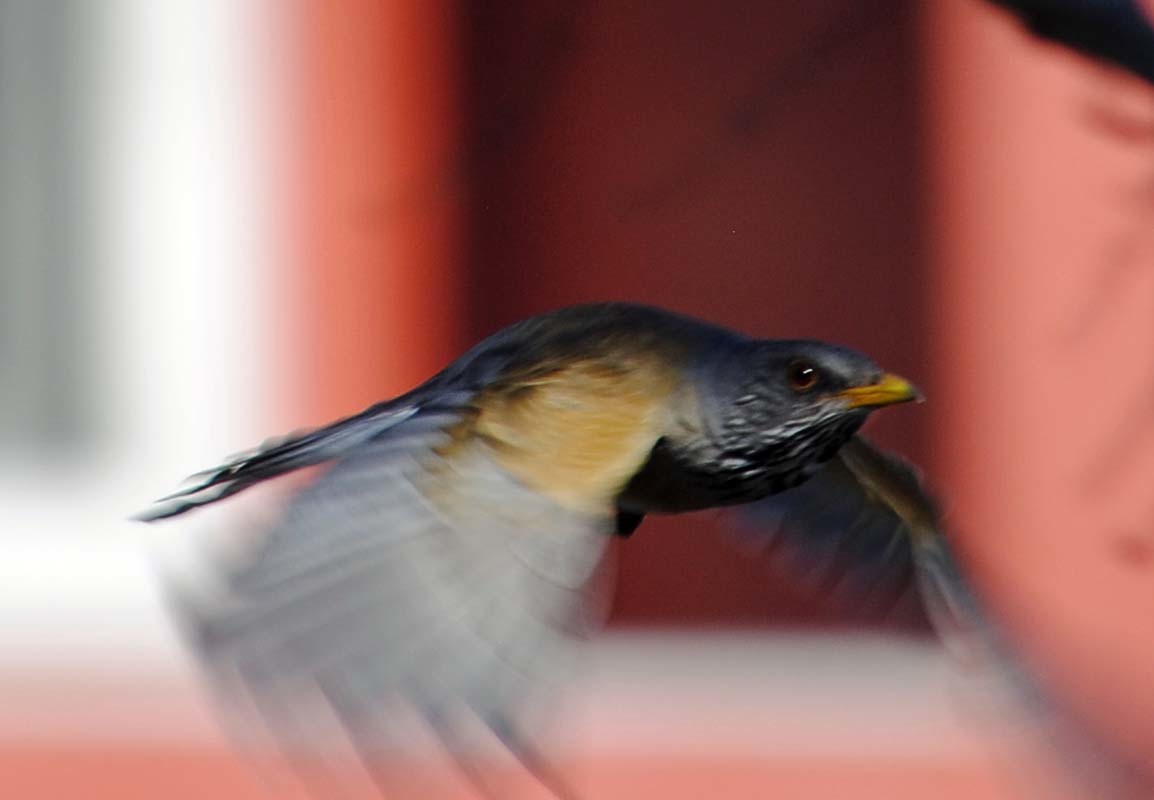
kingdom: Animalia
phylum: Chordata
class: Aves
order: Passeriformes
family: Turdidae
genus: Turdus
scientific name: Turdus rufopalliatus
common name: Rufous-backed robin
